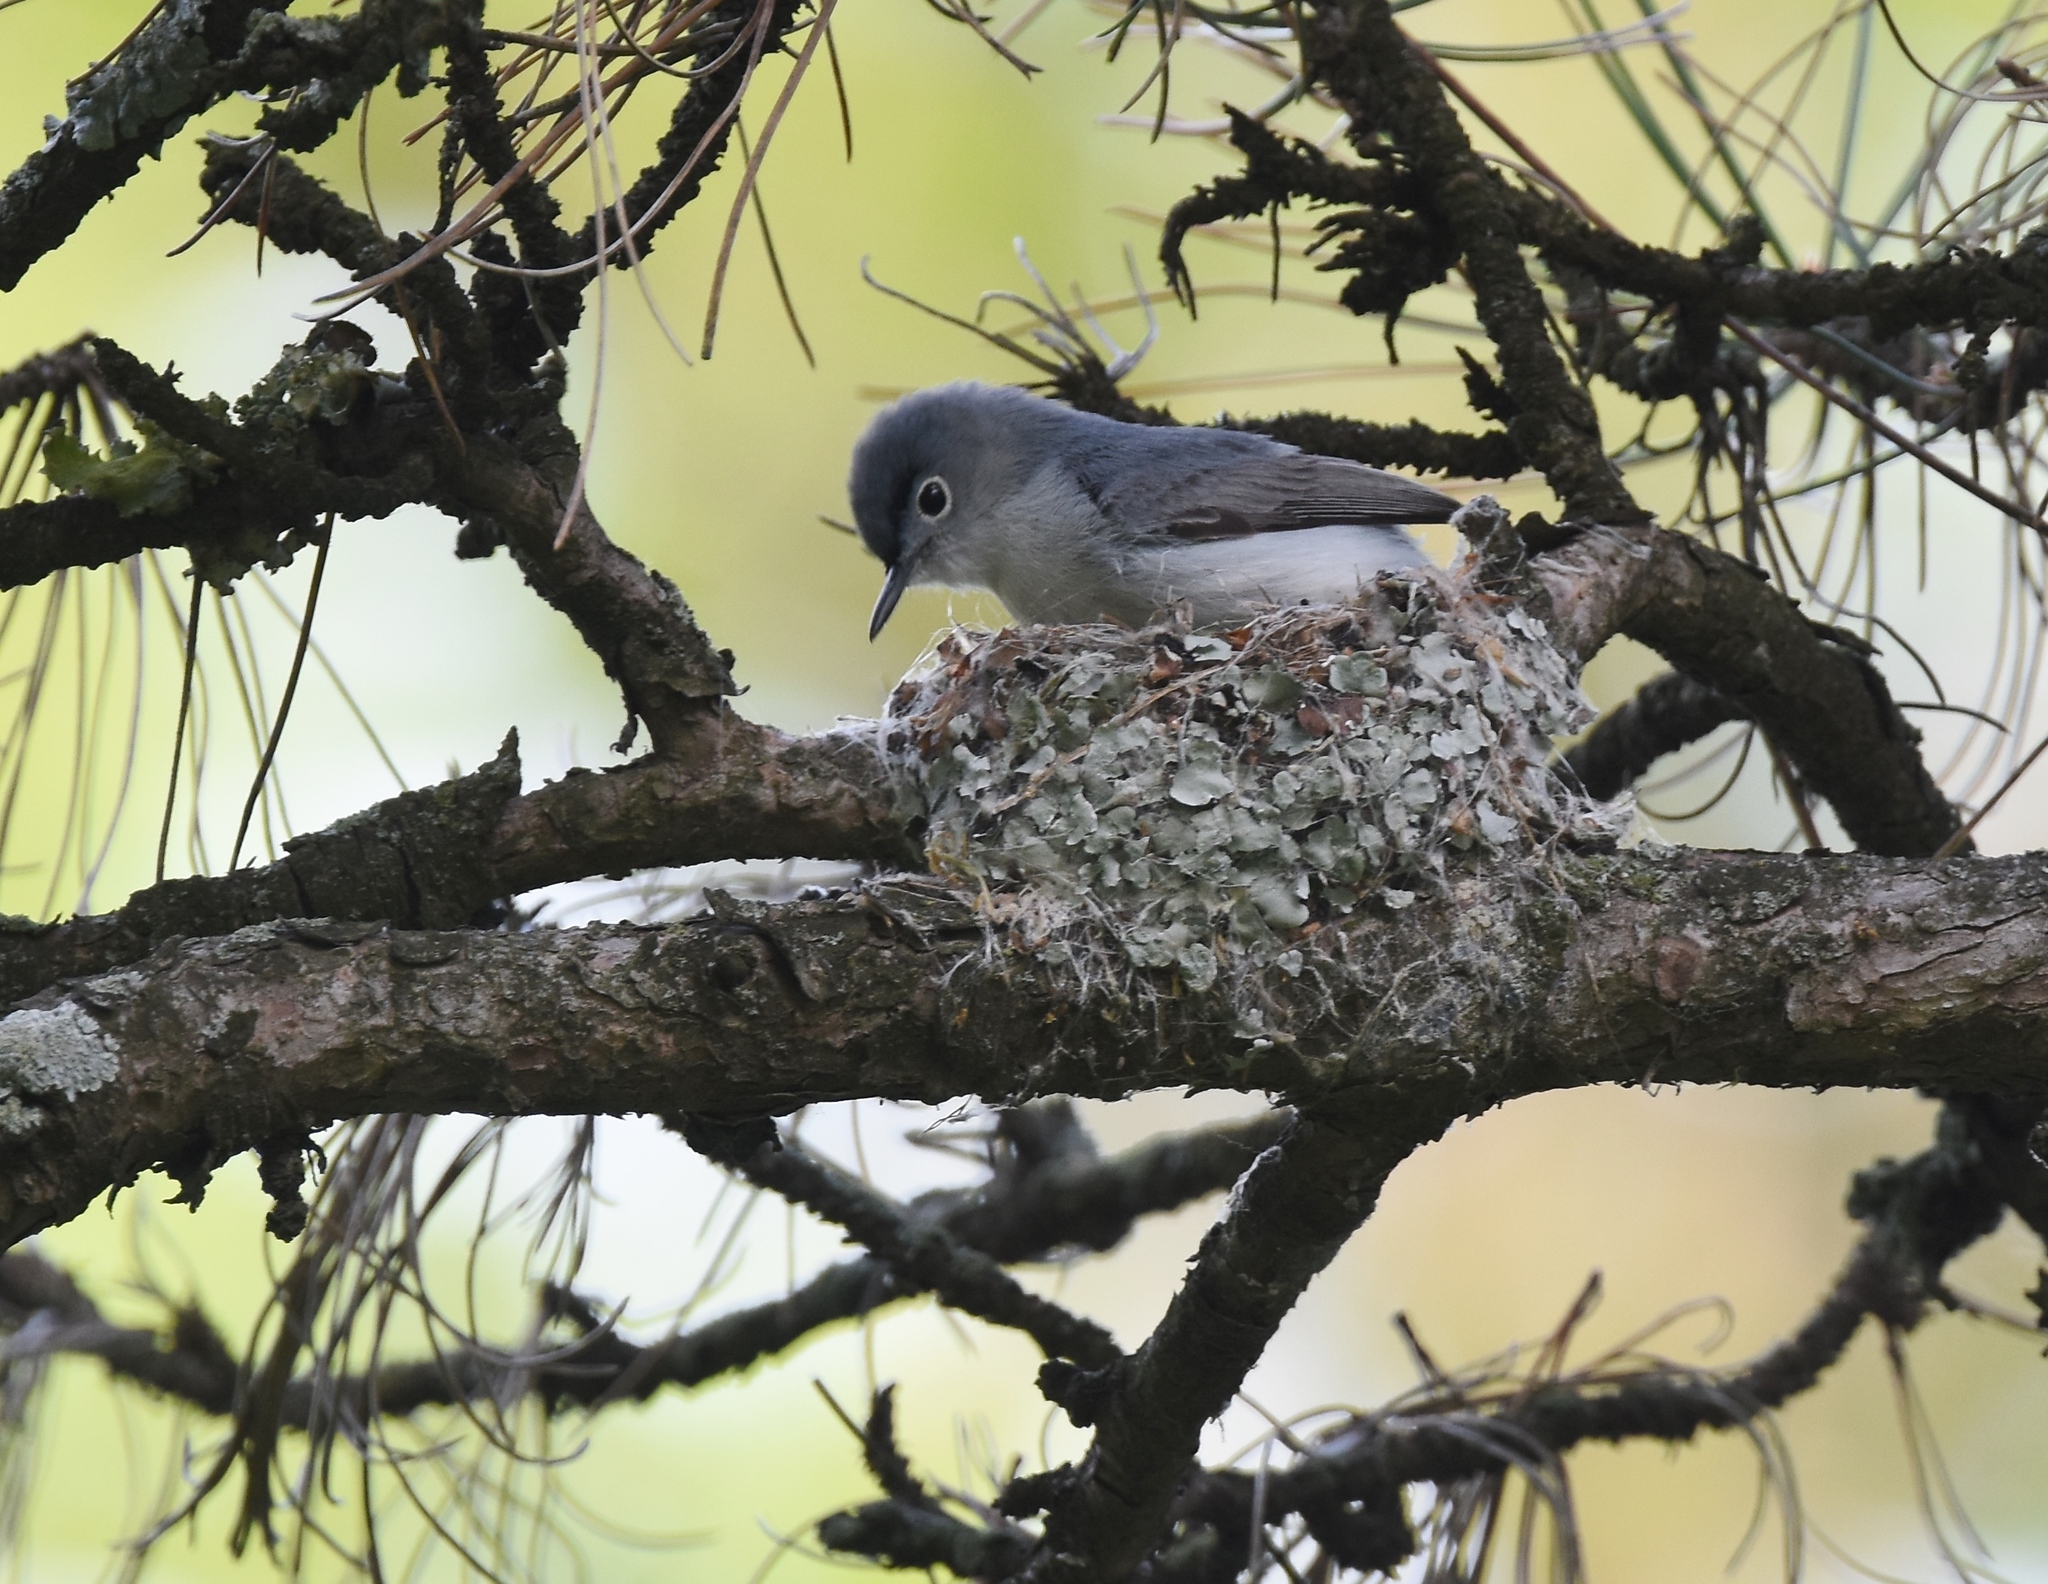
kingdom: Animalia
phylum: Chordata
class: Aves
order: Passeriformes
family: Polioptilidae
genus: Polioptila
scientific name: Polioptila caerulea
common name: Blue-gray gnatcatcher
